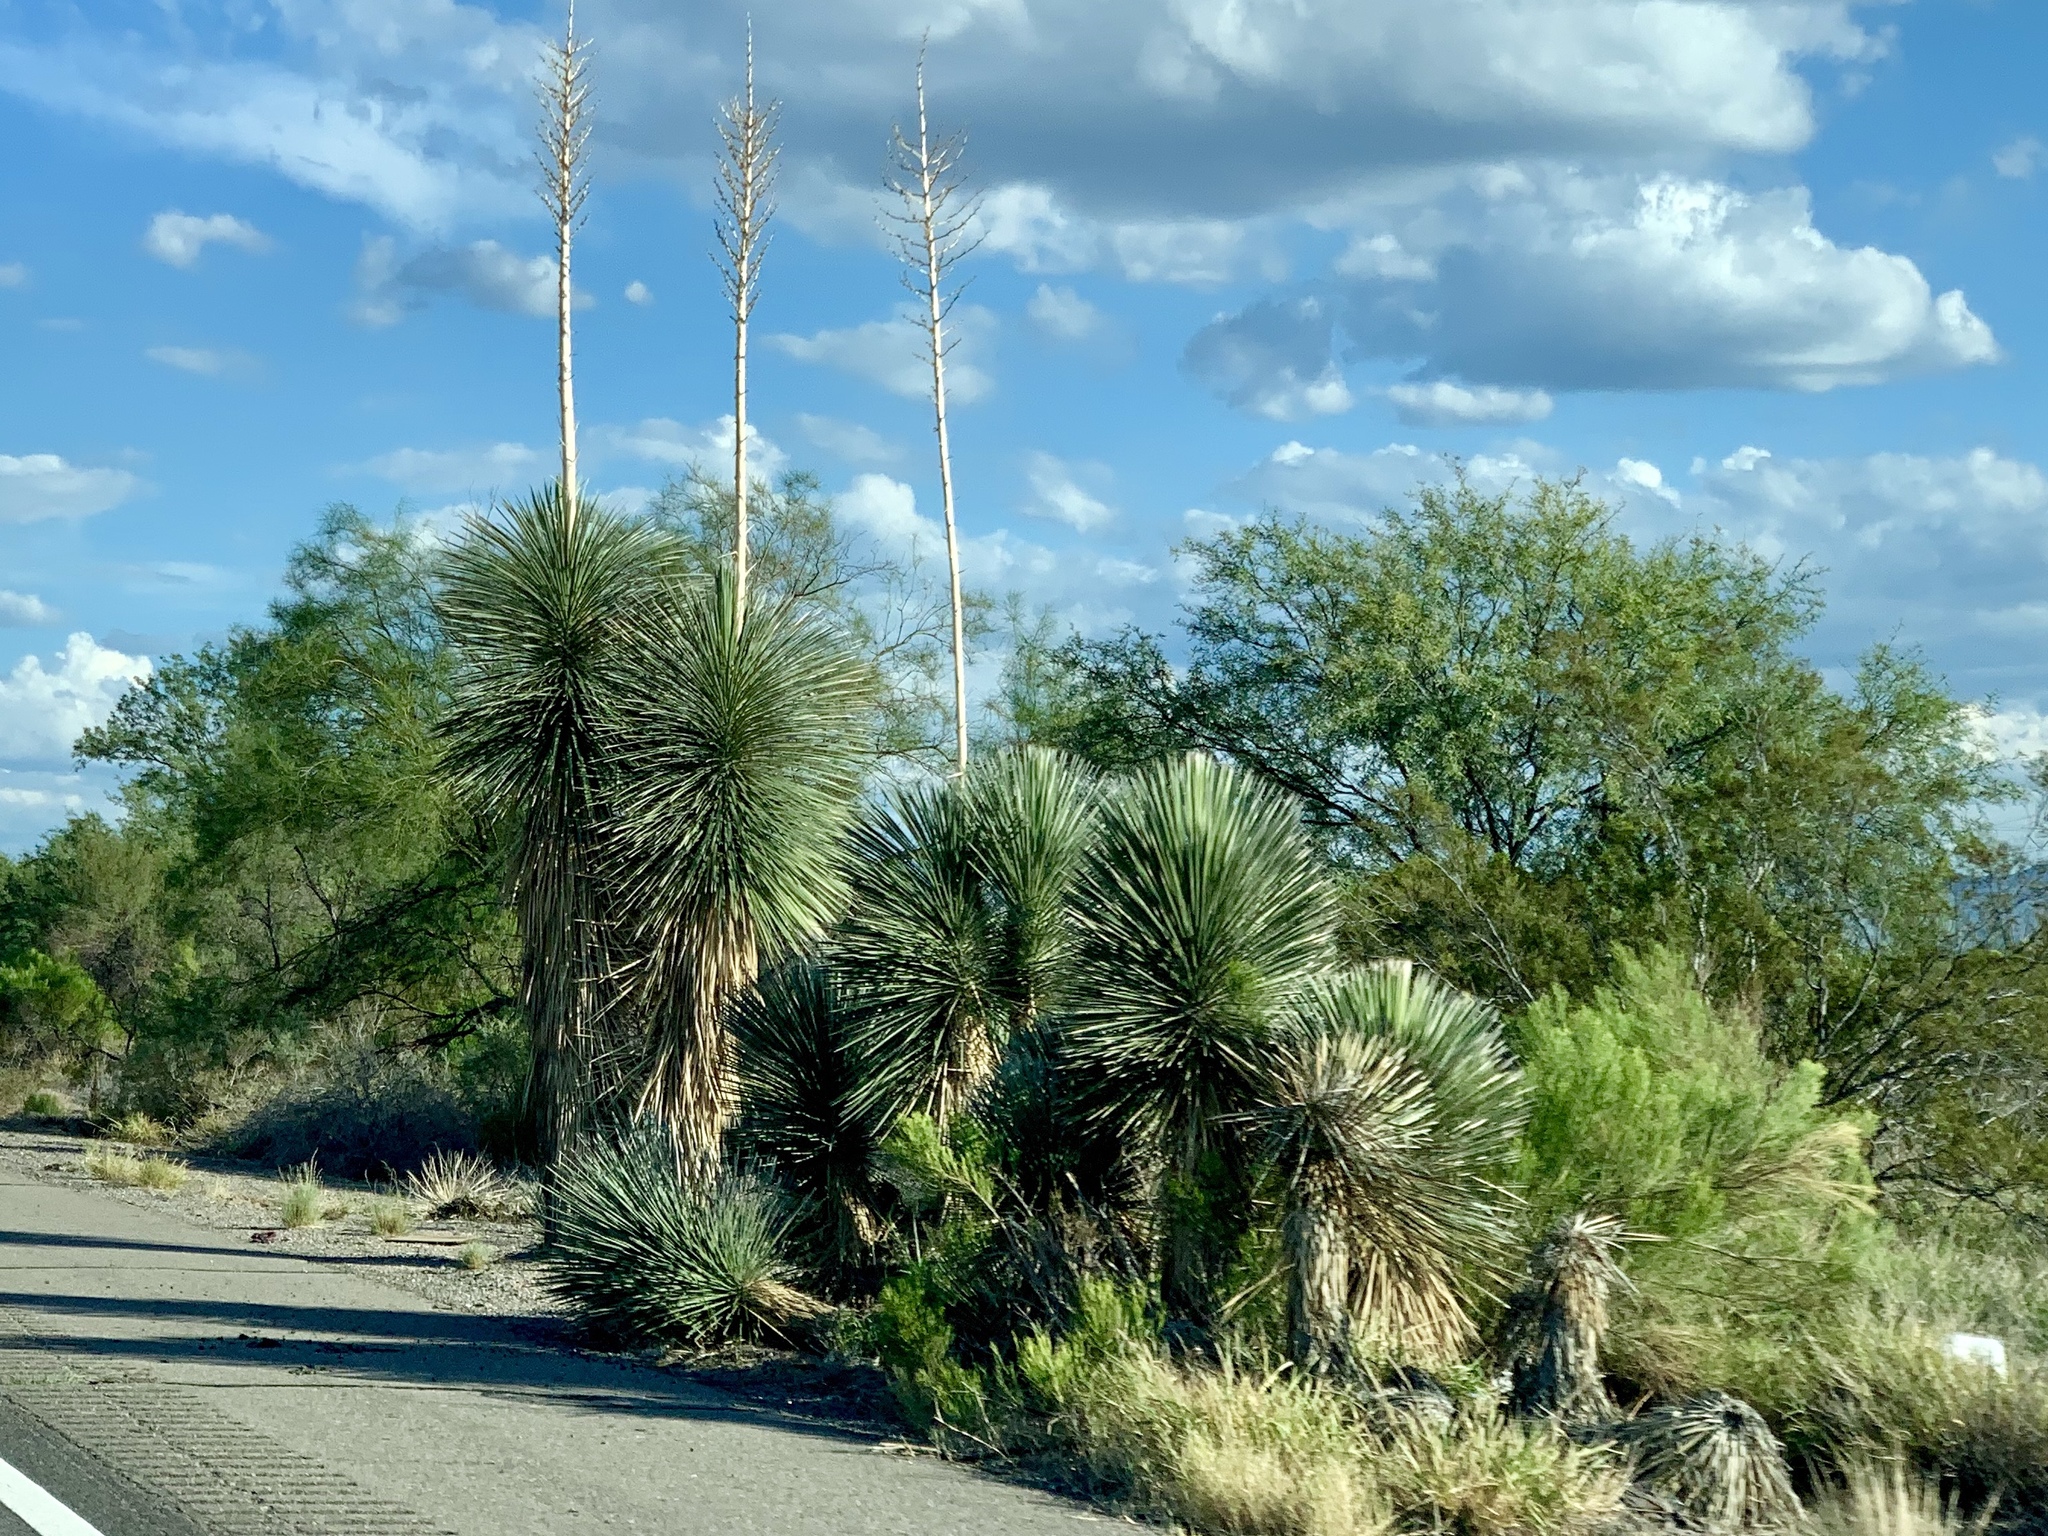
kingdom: Plantae
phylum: Tracheophyta
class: Liliopsida
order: Asparagales
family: Asparagaceae
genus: Yucca
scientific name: Yucca elata
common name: Palmella
